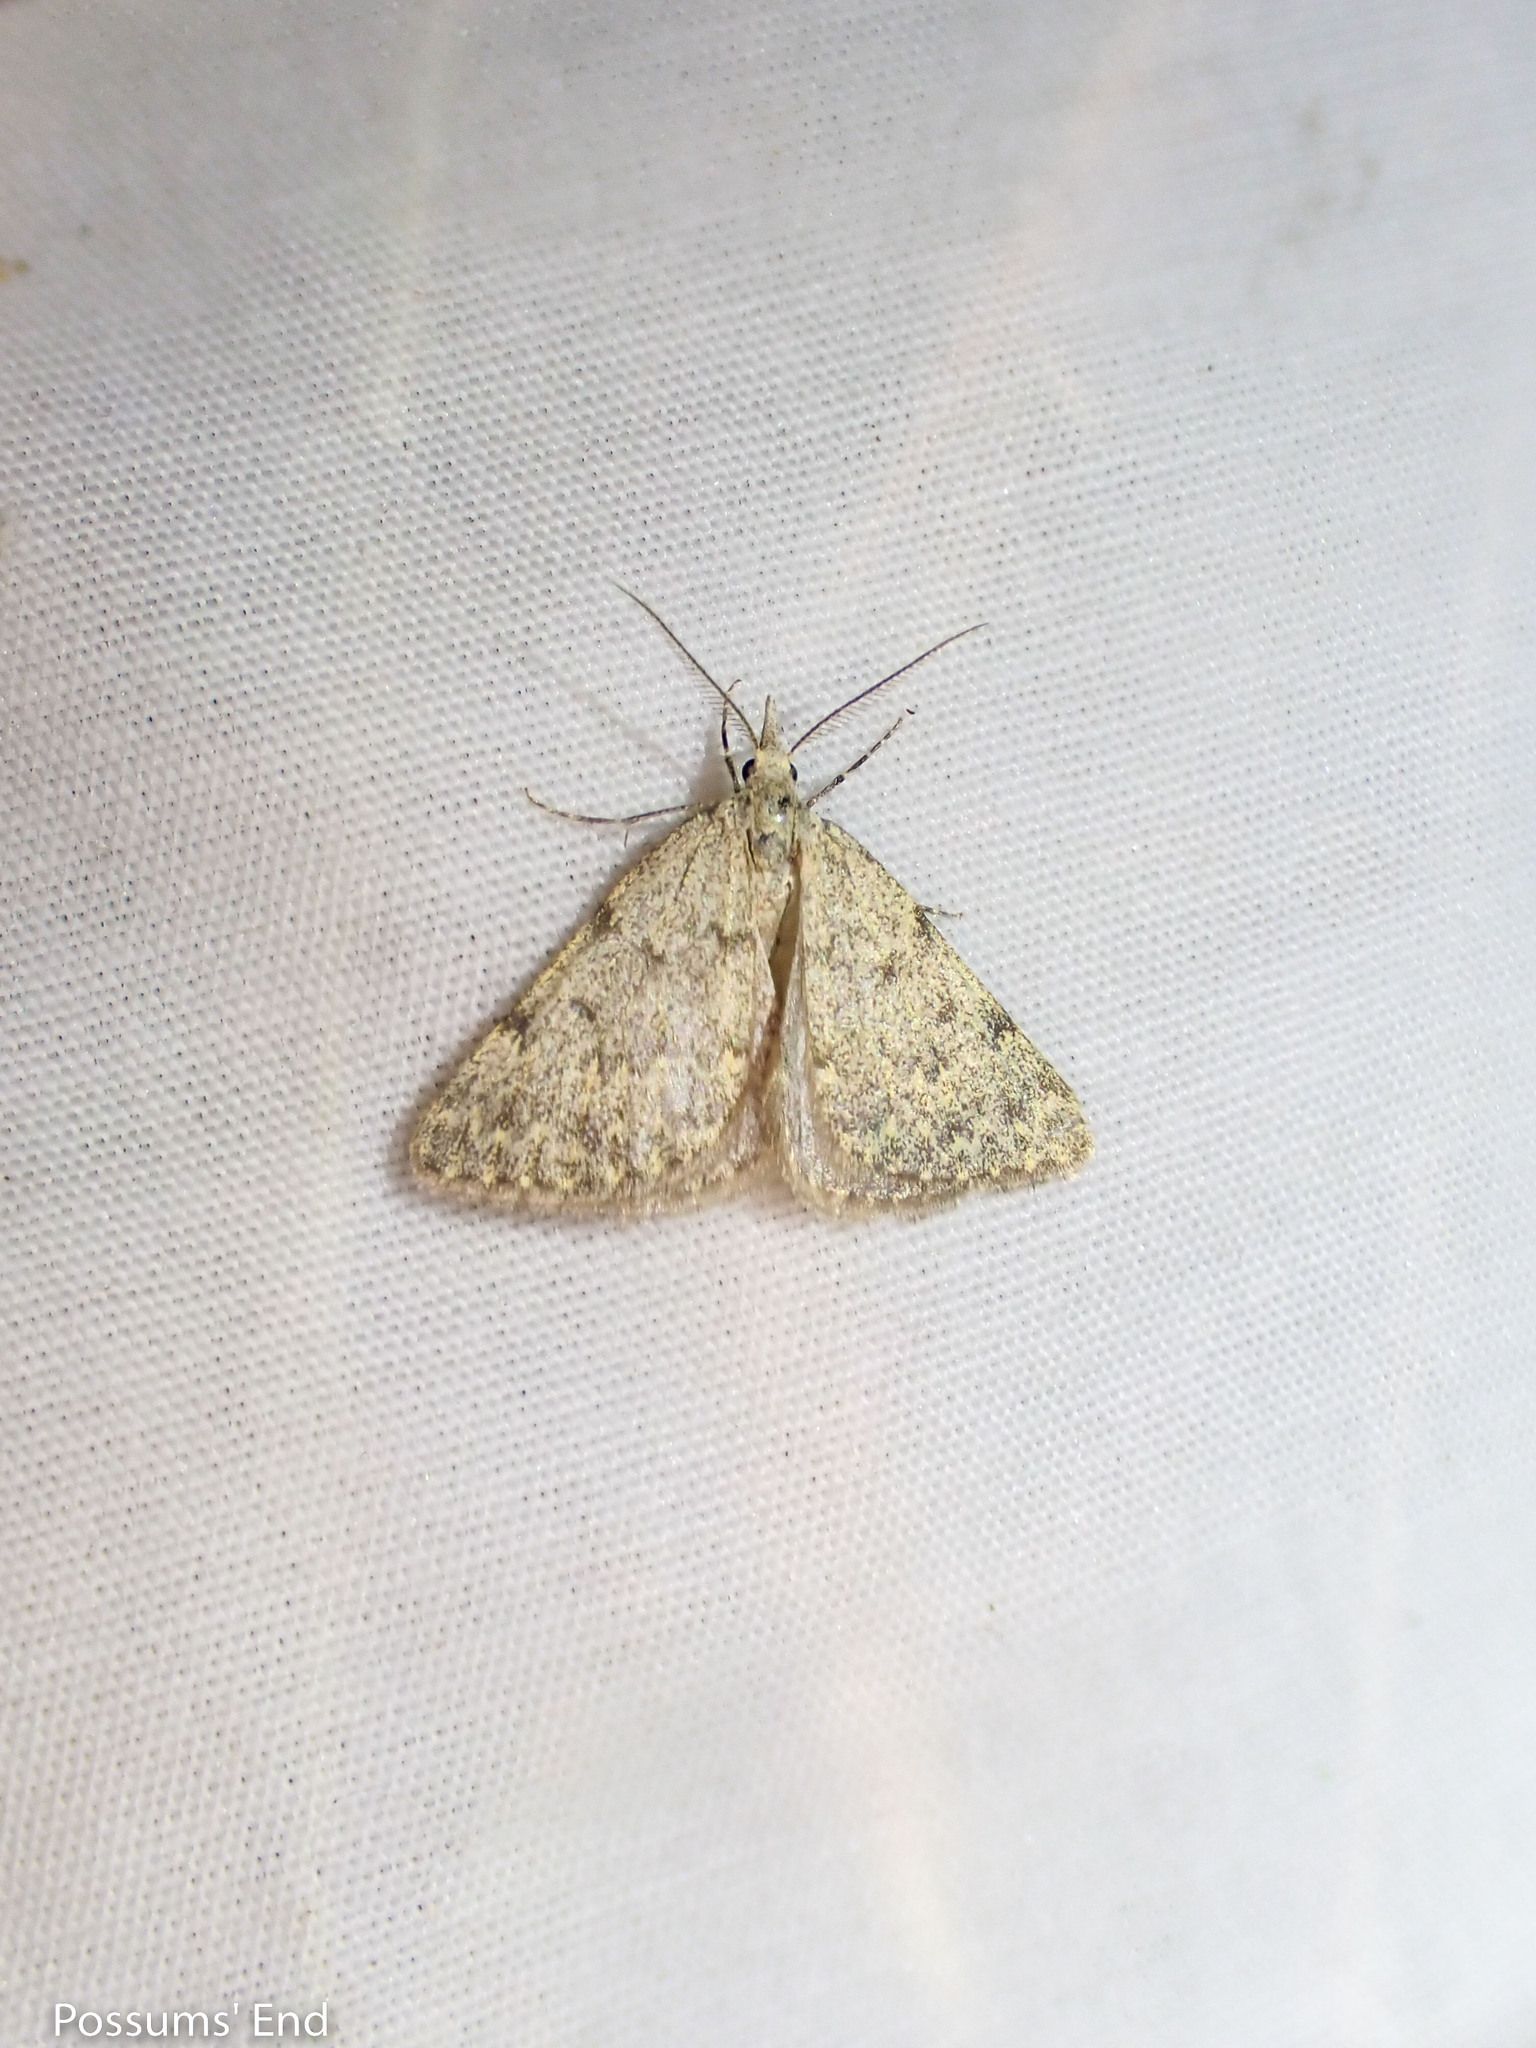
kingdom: Animalia
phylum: Arthropoda
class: Insecta
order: Lepidoptera
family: Geometridae
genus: Dichromodes
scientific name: Dichromodes sphaeriata
